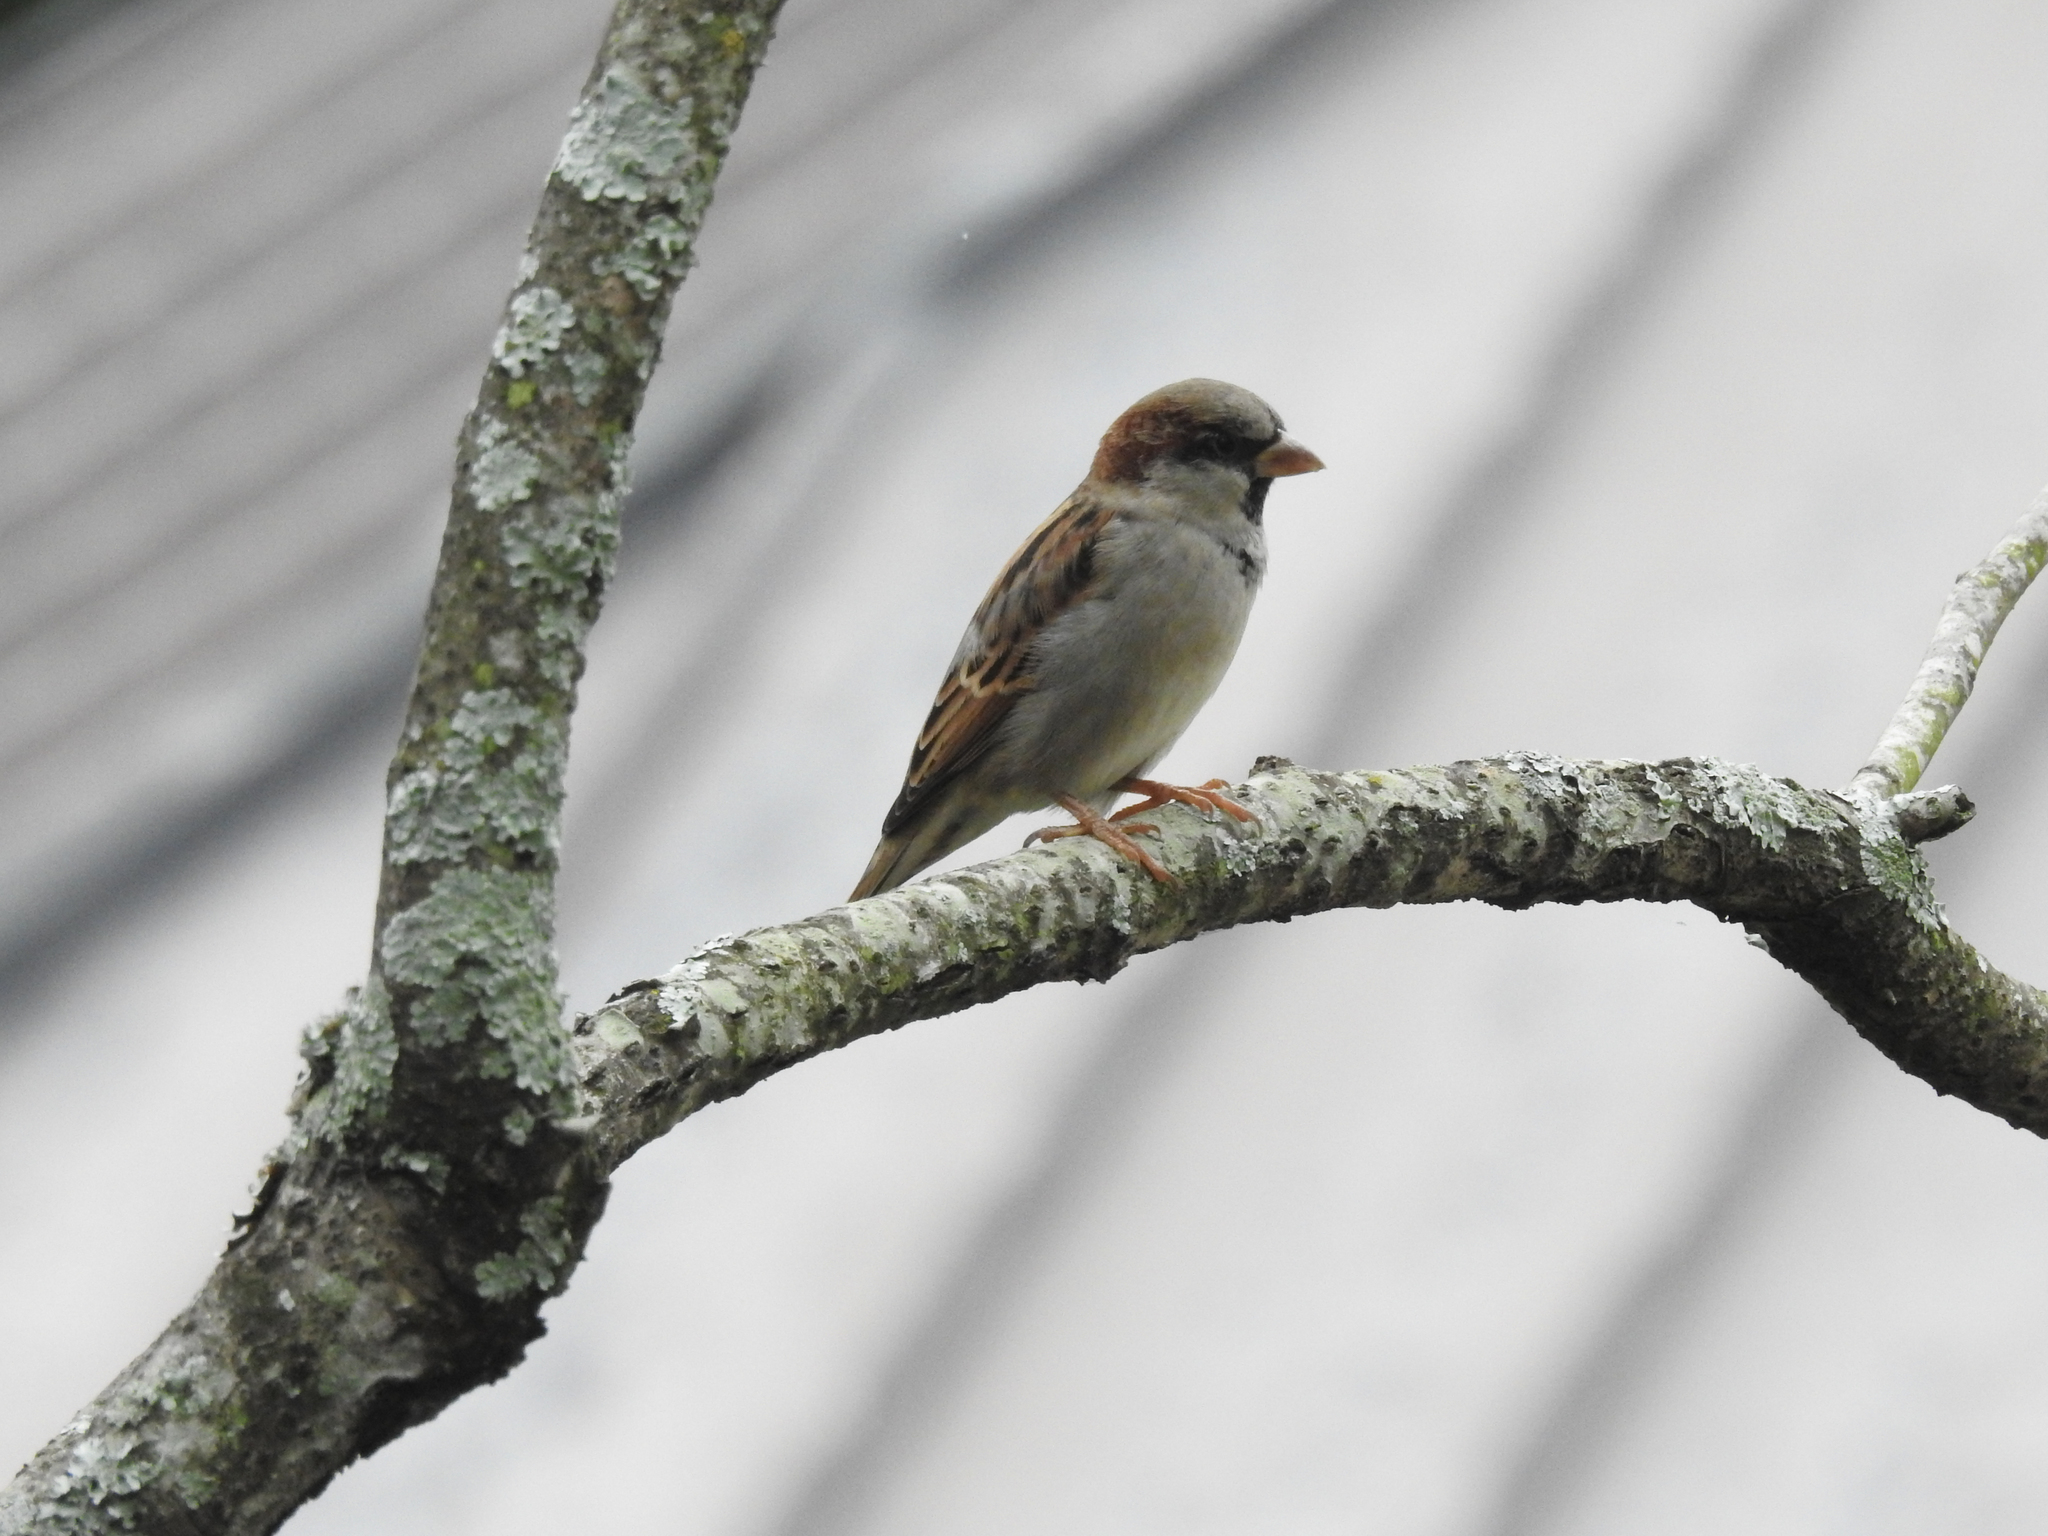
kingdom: Animalia
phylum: Chordata
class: Aves
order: Passeriformes
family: Passeridae
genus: Passer
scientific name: Passer domesticus
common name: House sparrow
